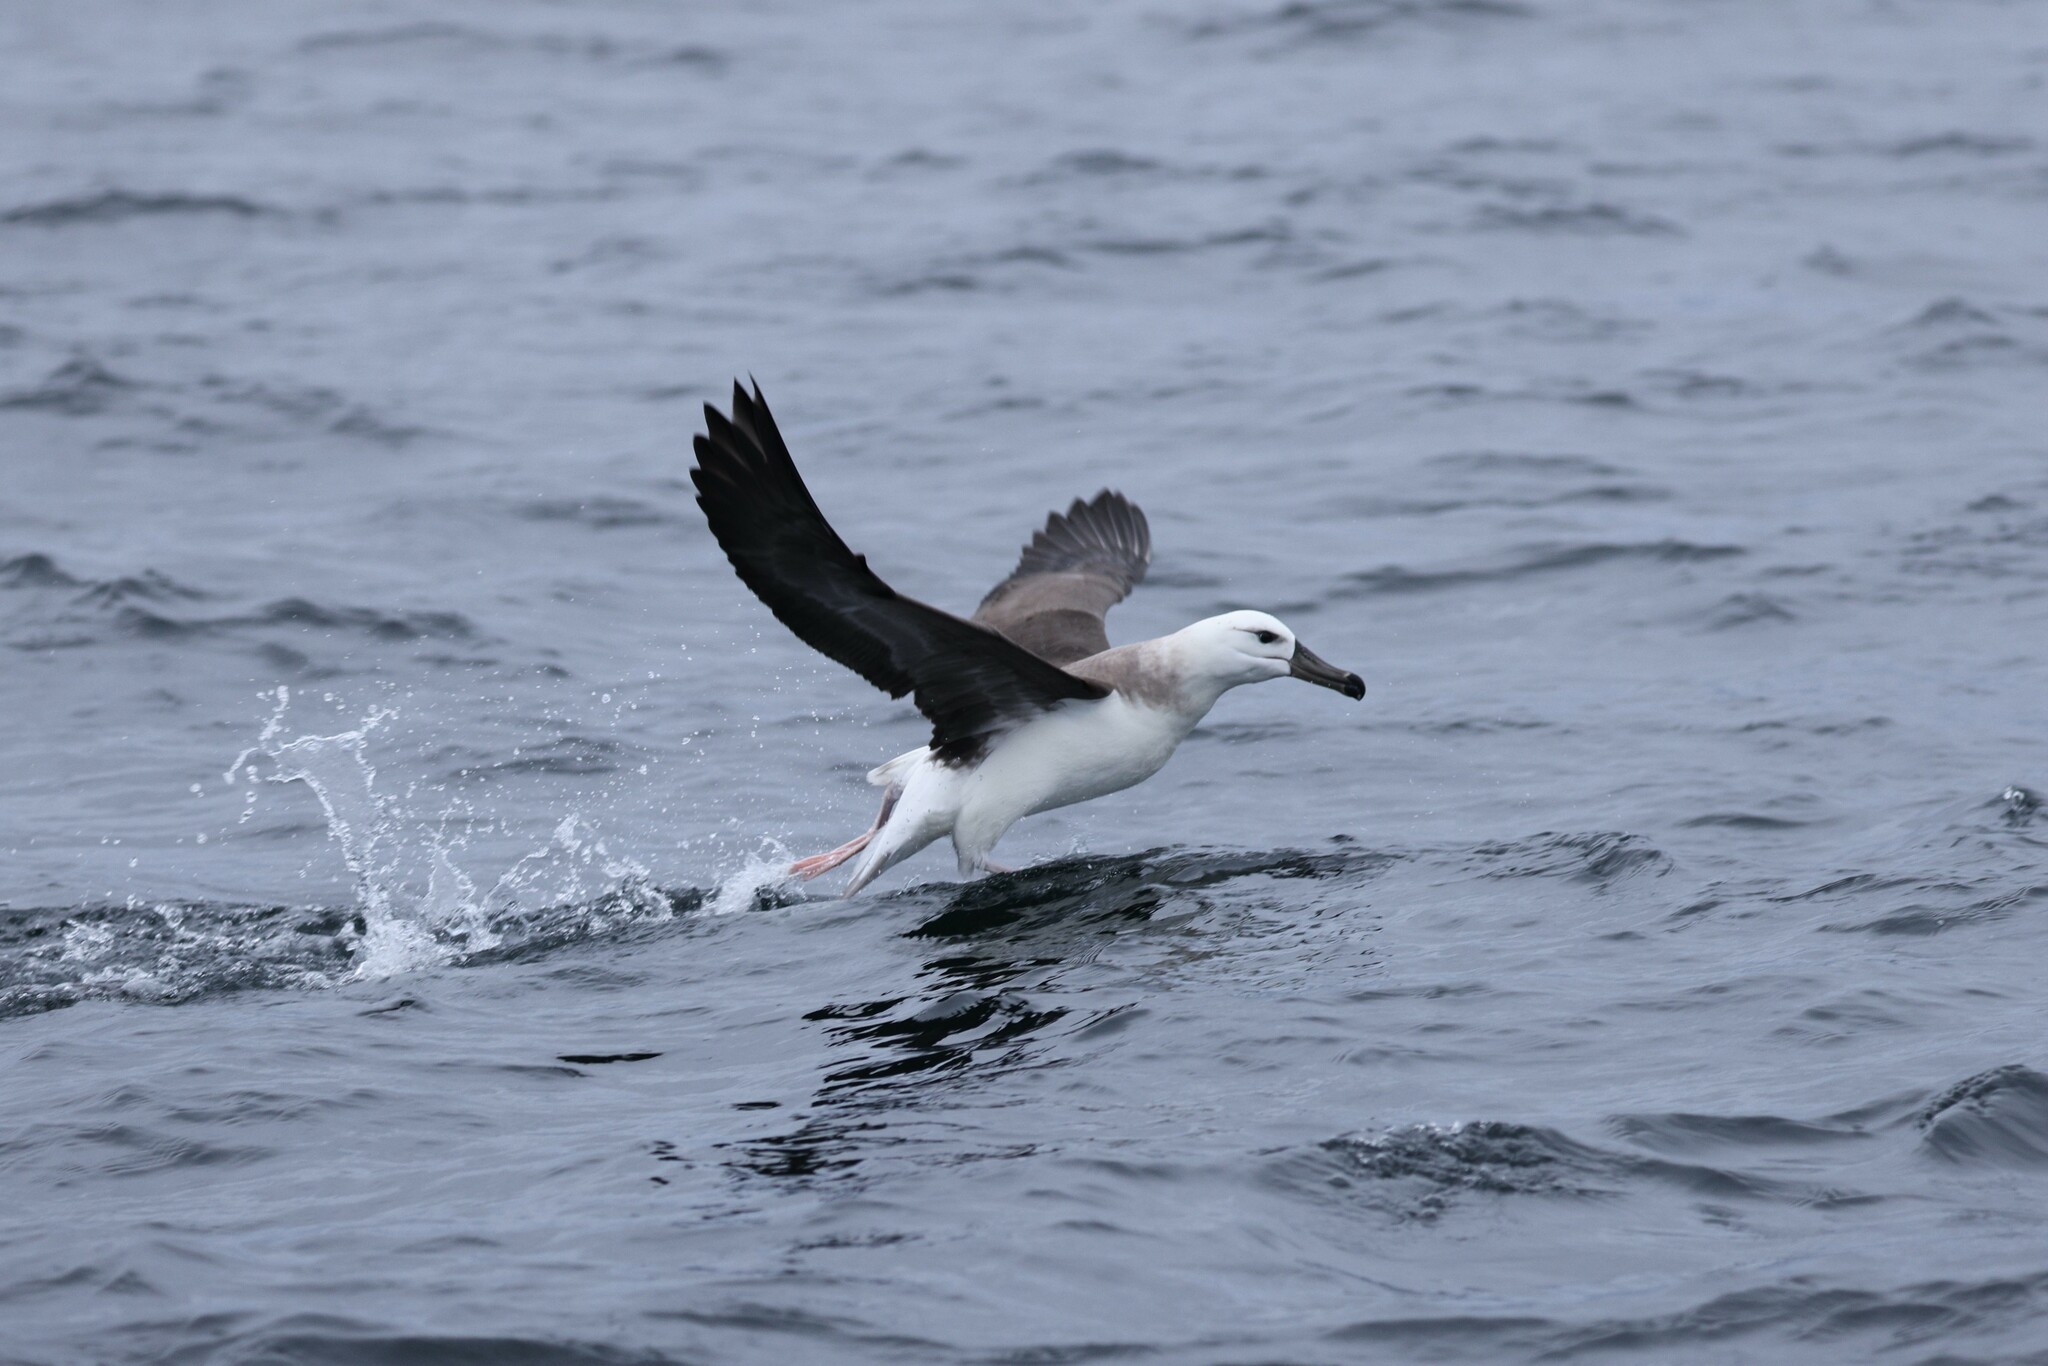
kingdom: Animalia
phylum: Chordata
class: Aves
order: Procellariiformes
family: Diomedeidae
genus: Thalassarche
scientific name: Thalassarche melanophris
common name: Black-browed albatross
